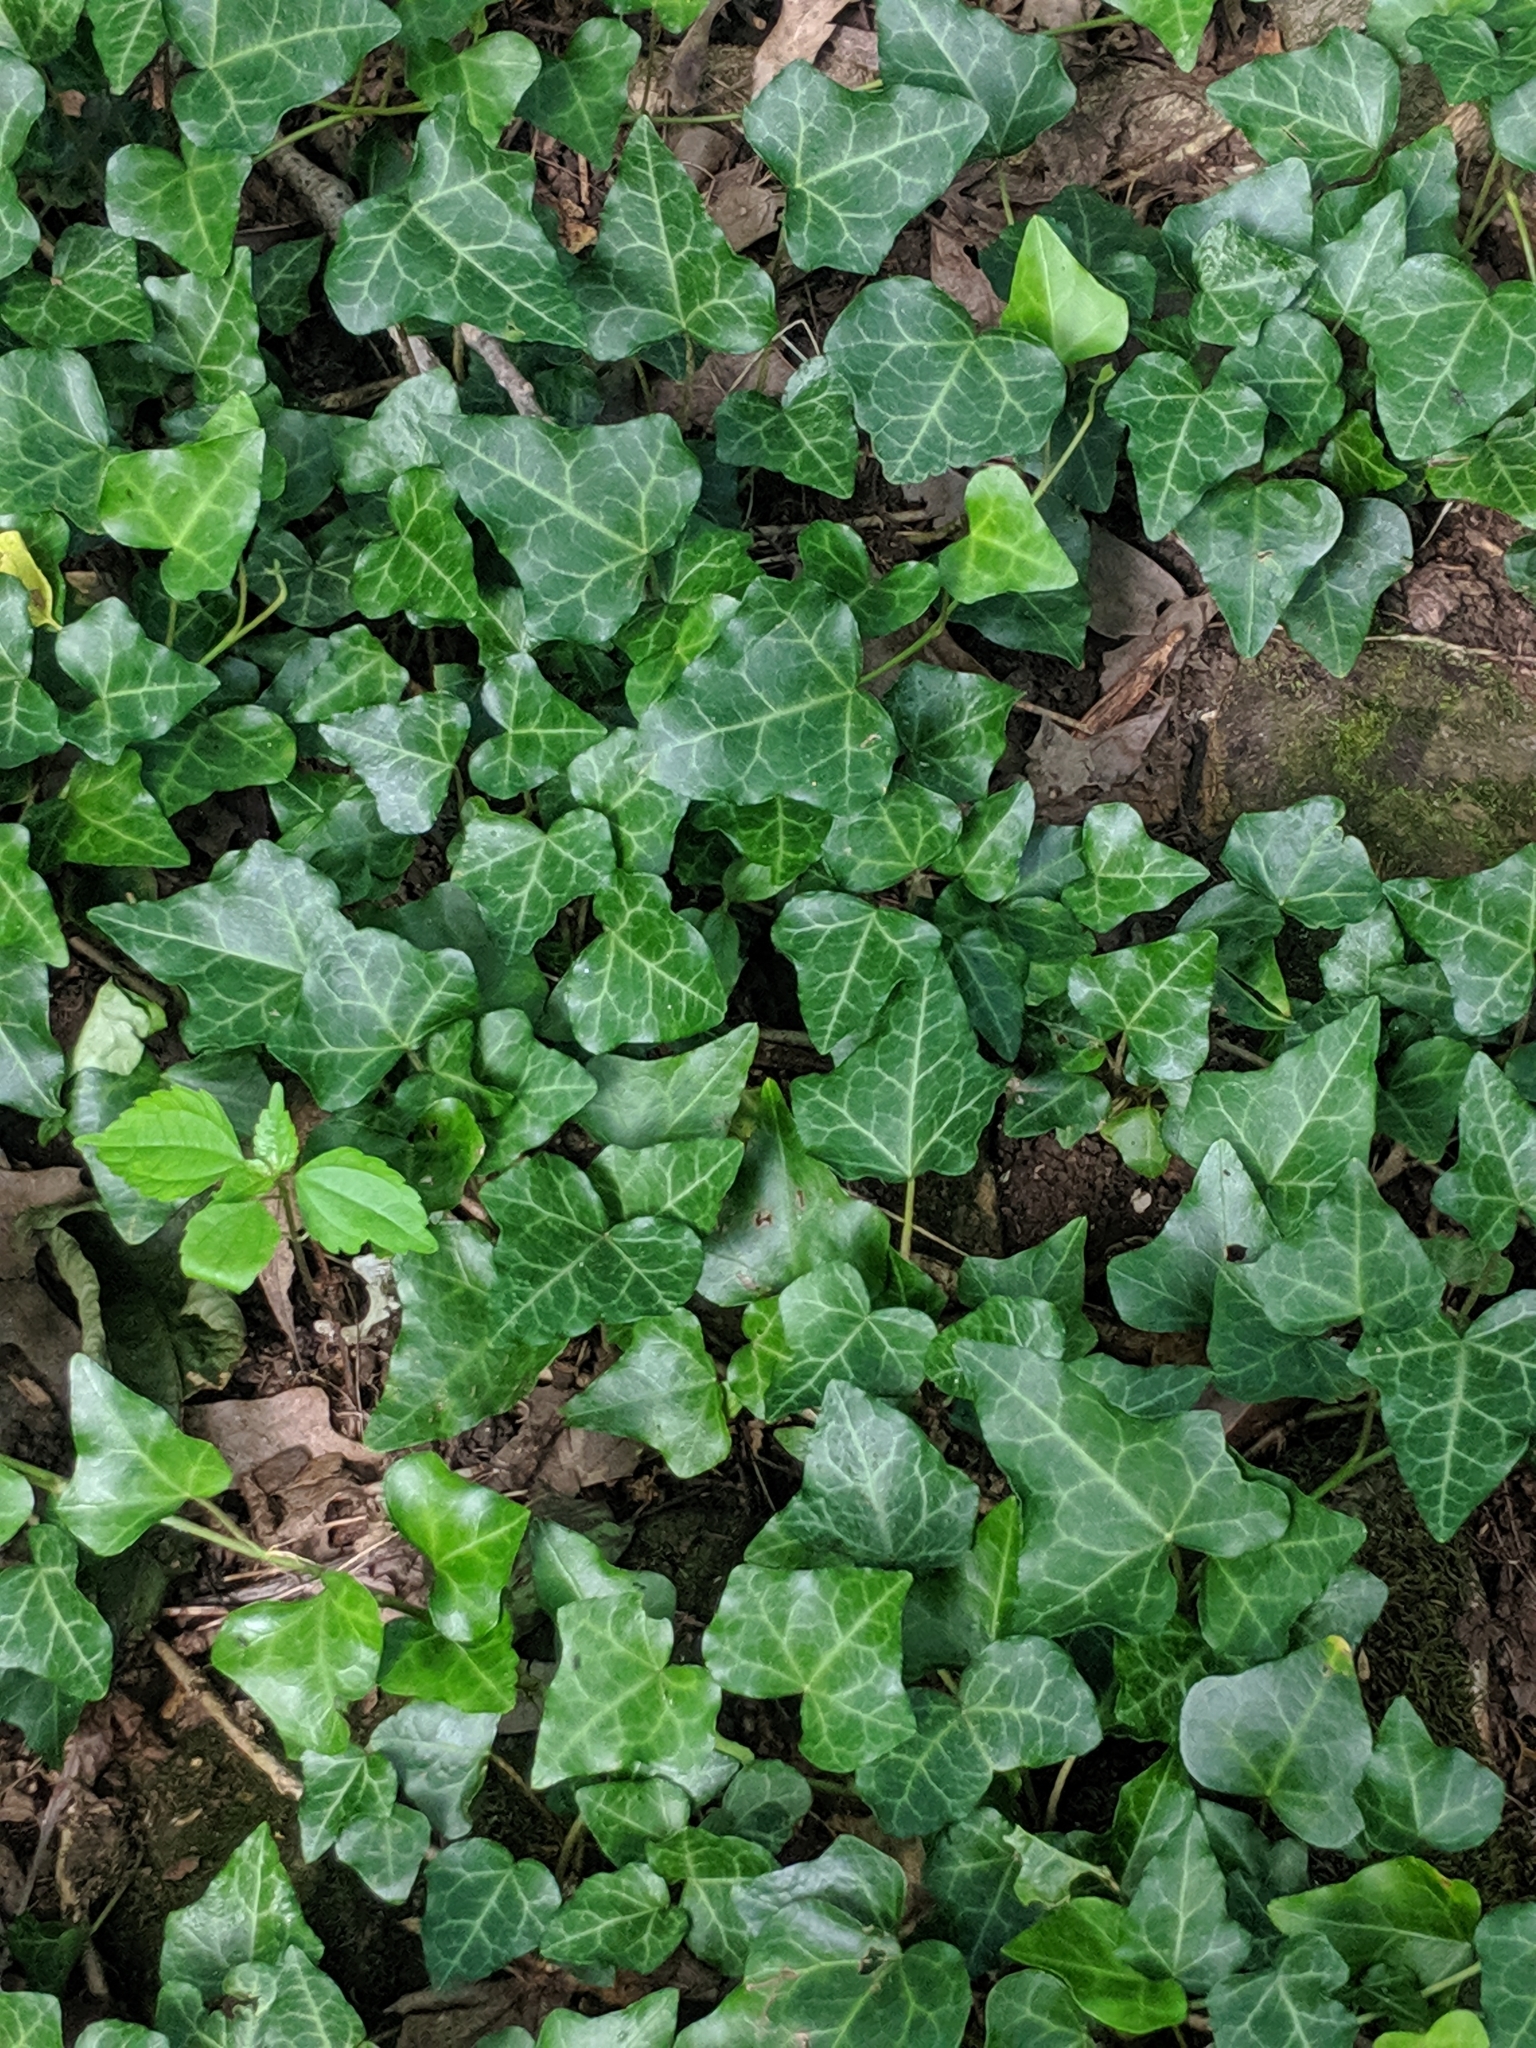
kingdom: Plantae
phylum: Tracheophyta
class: Magnoliopsida
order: Apiales
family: Araliaceae
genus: Hedera
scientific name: Hedera helix
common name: Ivy
